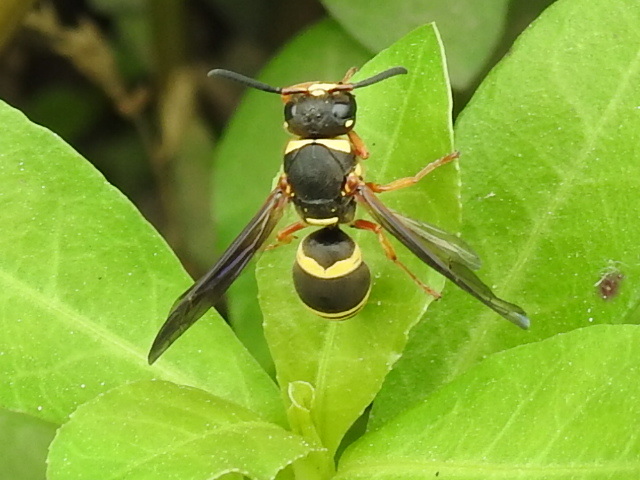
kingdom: Animalia
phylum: Arthropoda
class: Insecta
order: Hymenoptera
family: Eumenidae
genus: Euodynerus
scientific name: Euodynerus
